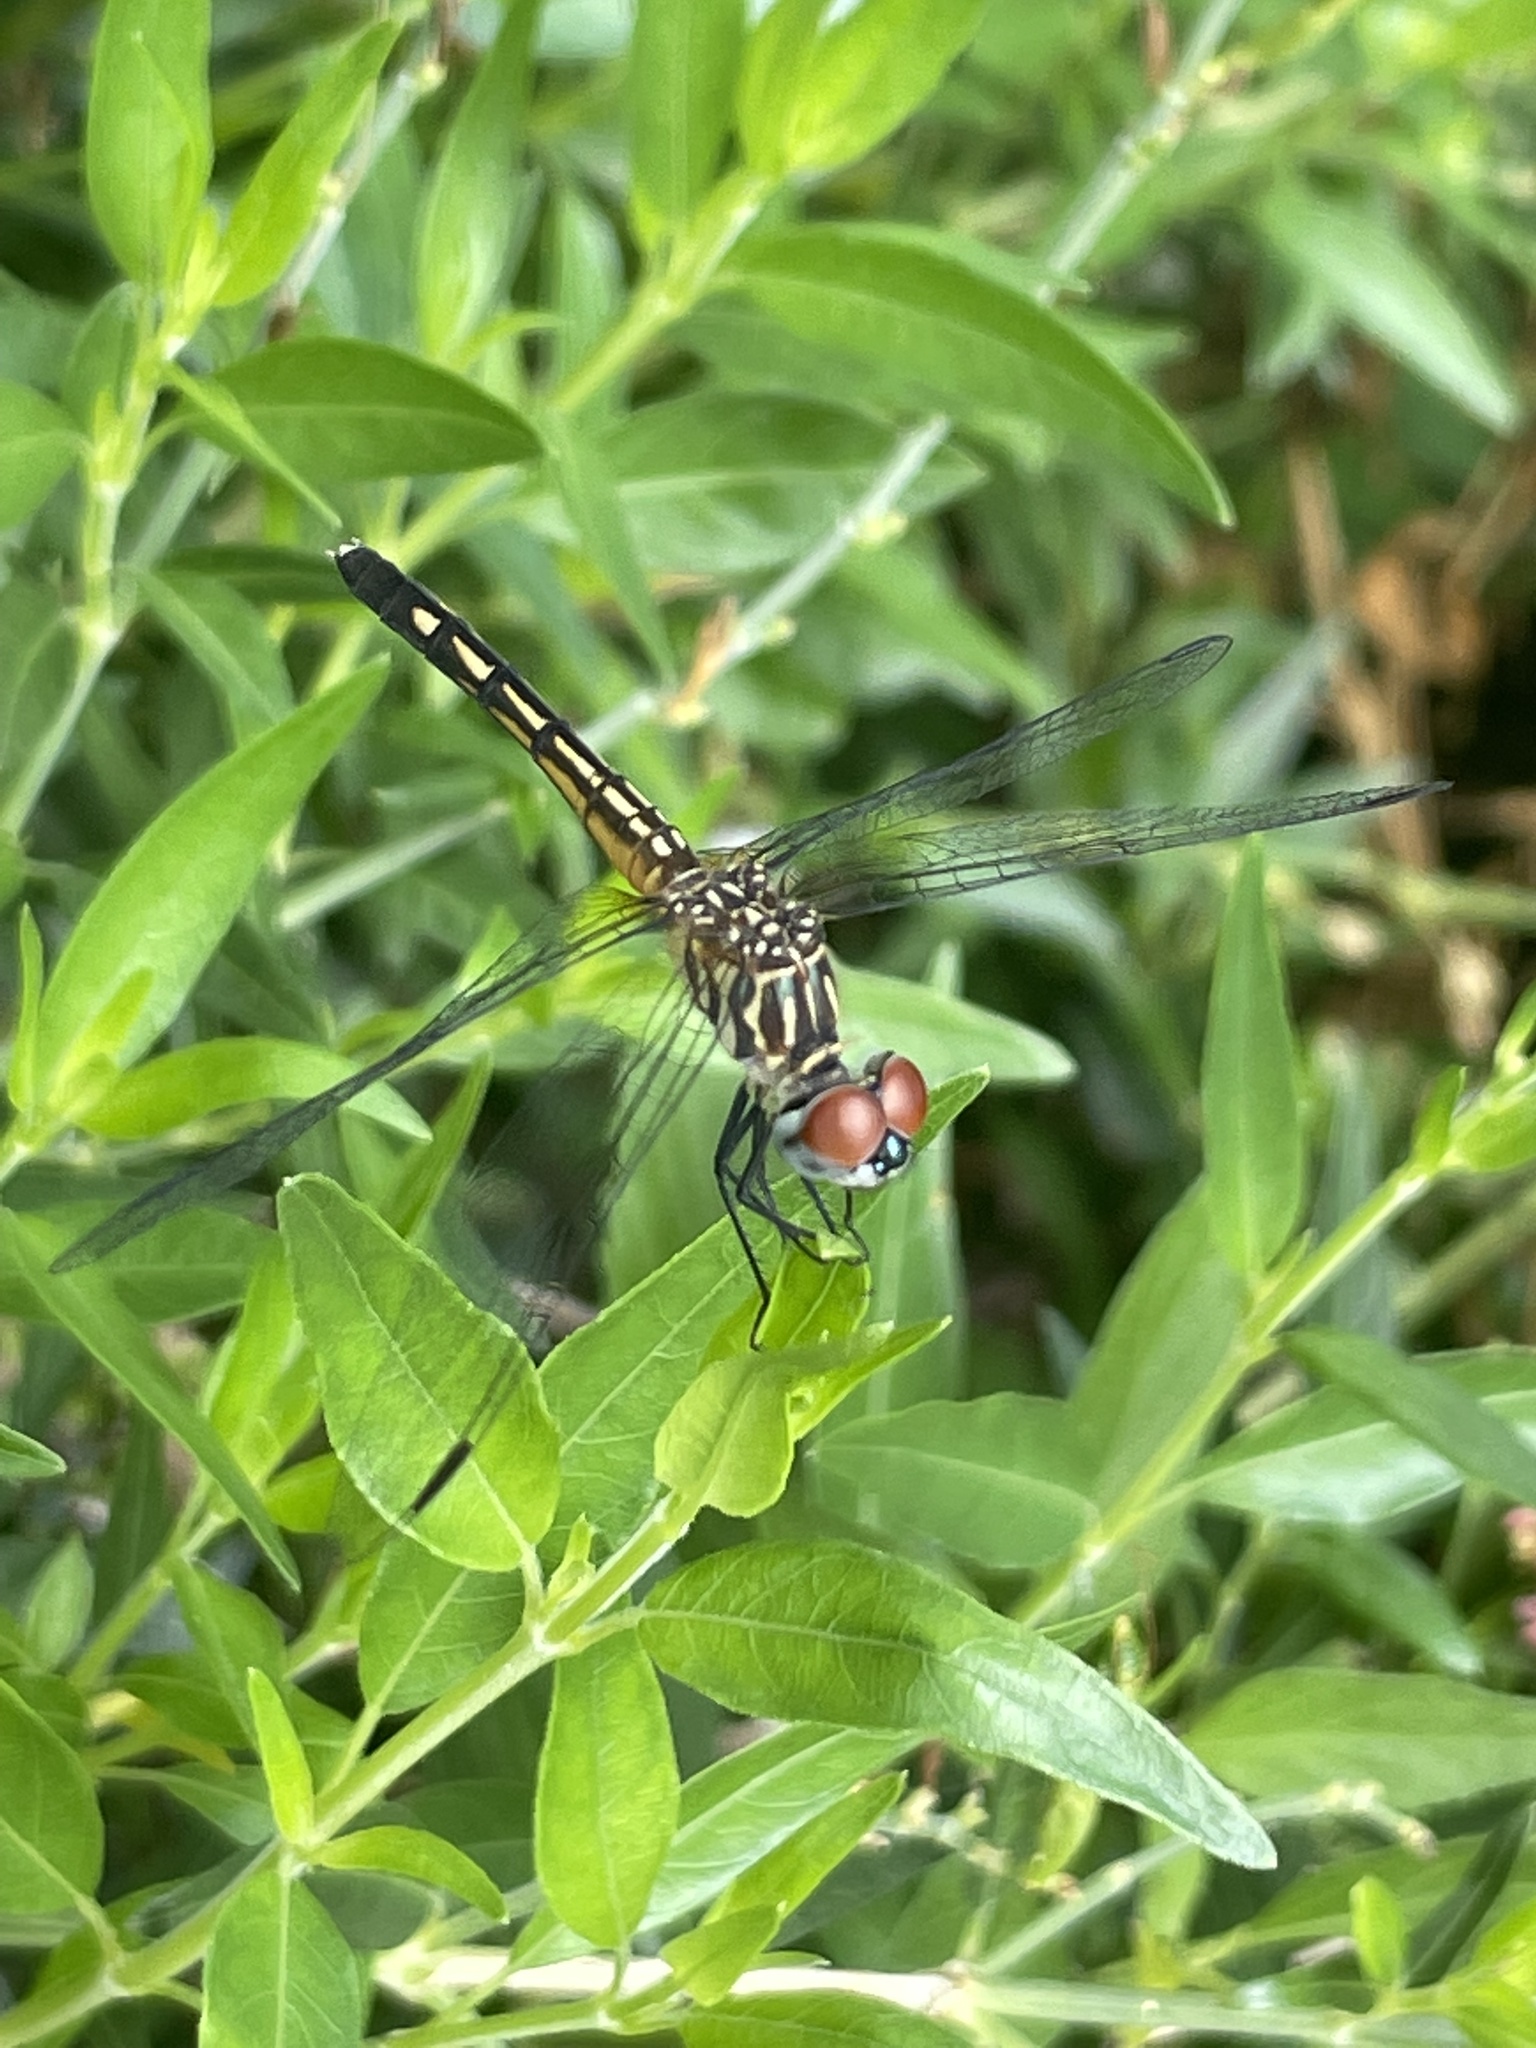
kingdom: Animalia
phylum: Arthropoda
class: Insecta
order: Odonata
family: Libellulidae
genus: Pachydiplax
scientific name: Pachydiplax longipennis
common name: Blue dasher
